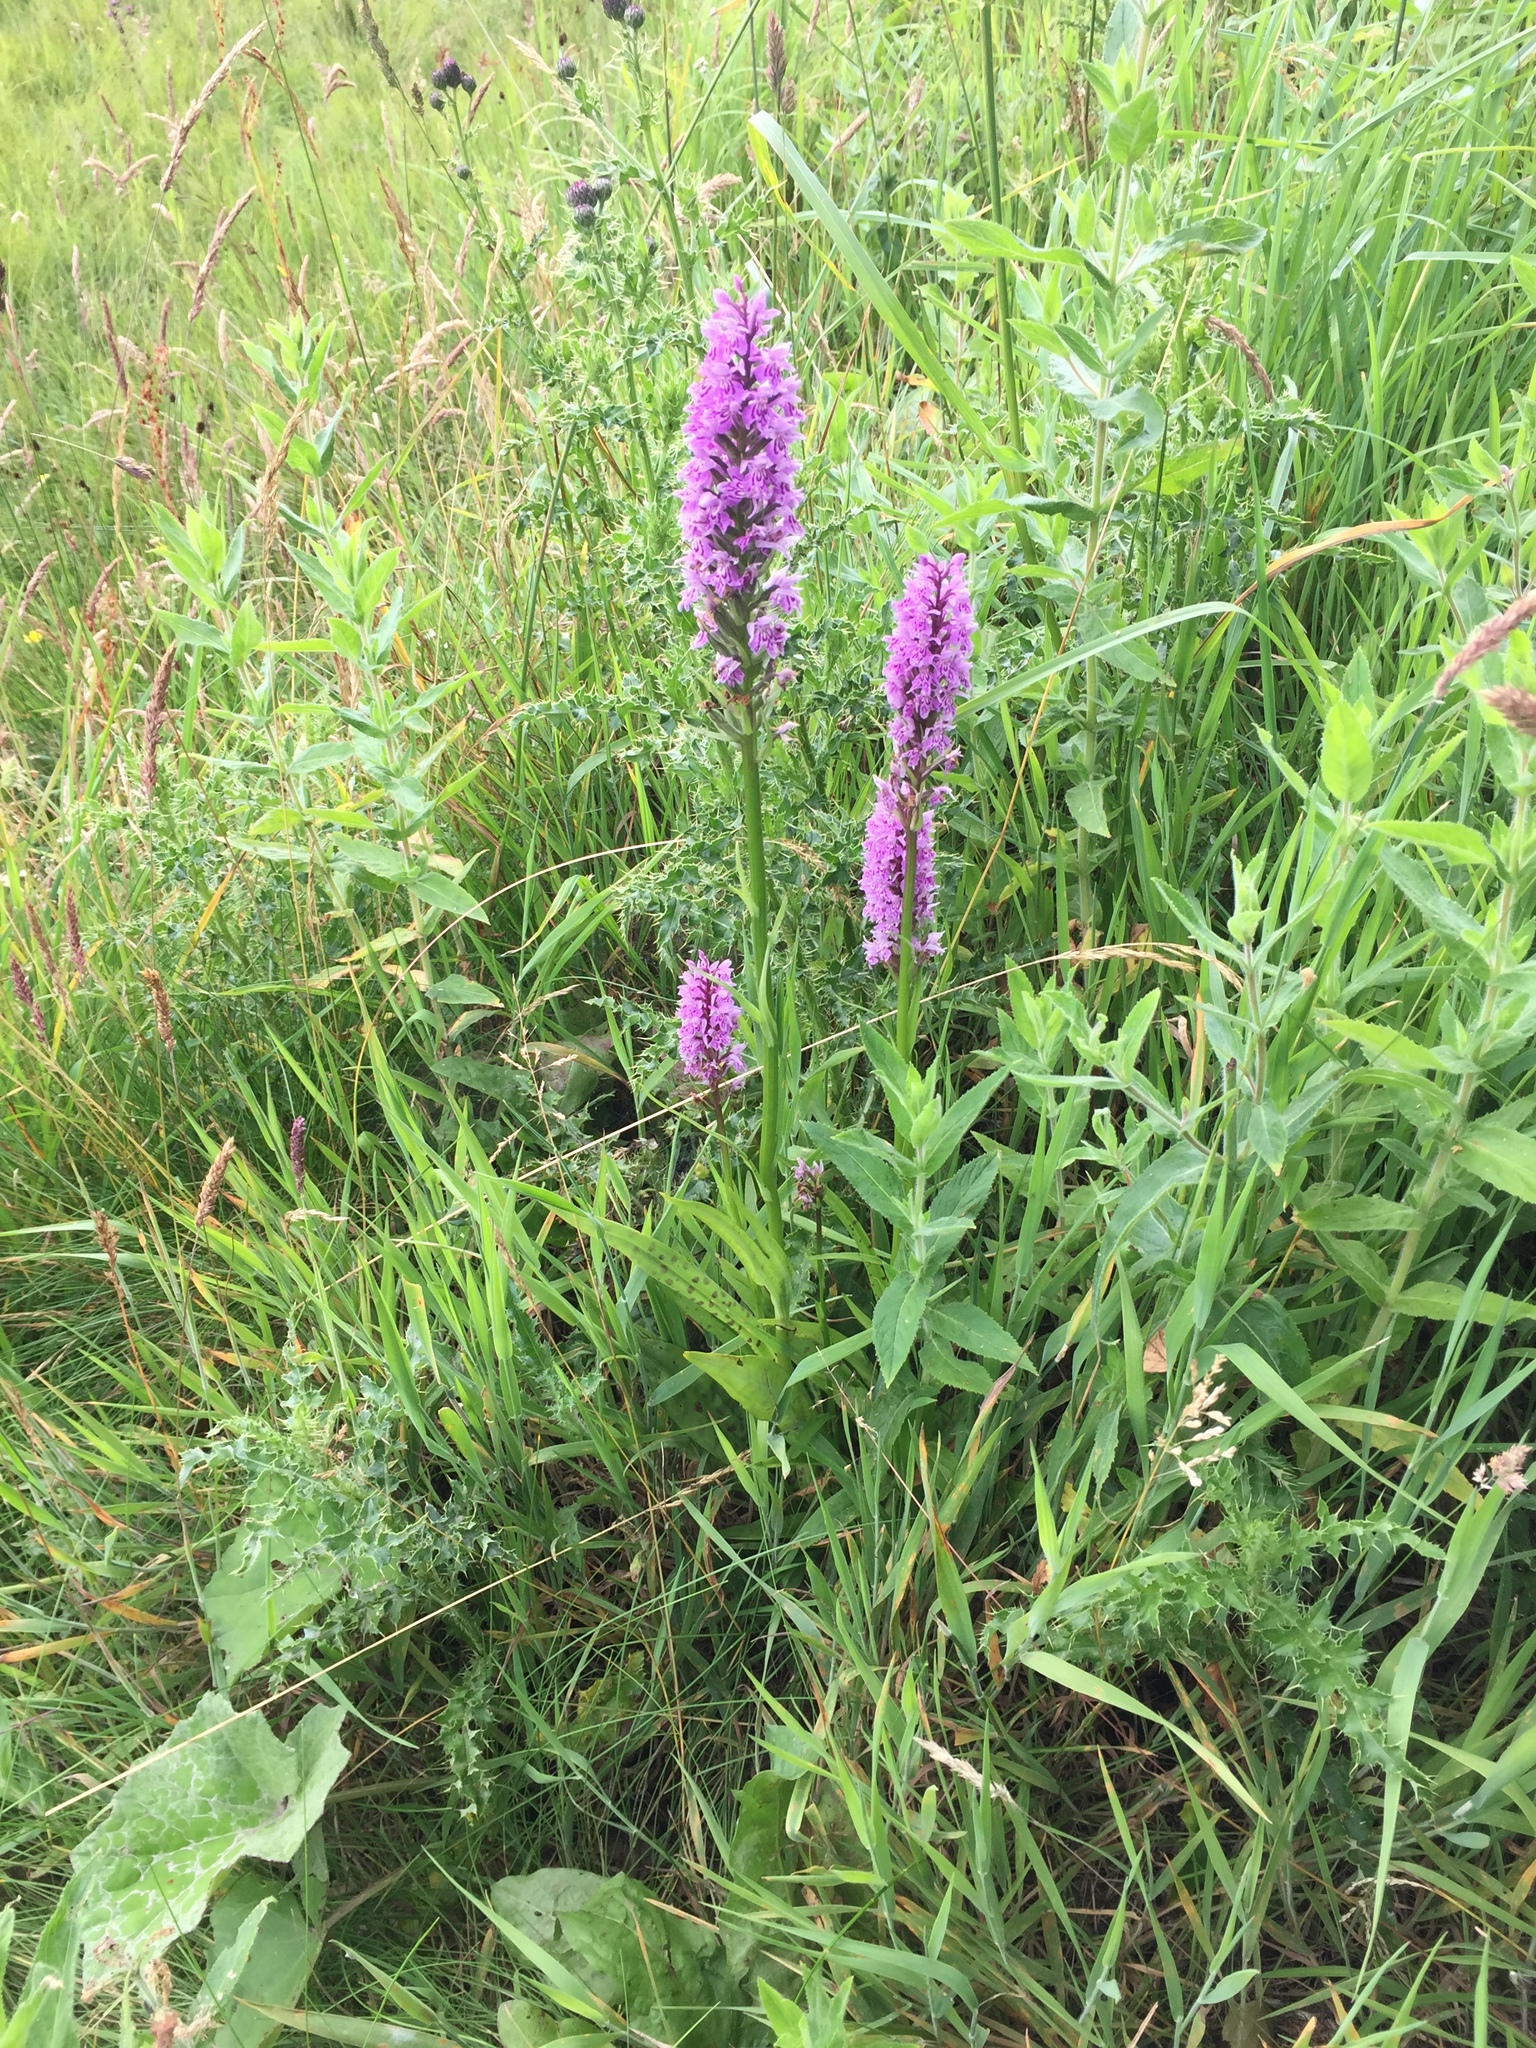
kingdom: Plantae
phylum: Tracheophyta
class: Liliopsida
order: Asparagales
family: Orchidaceae
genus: Dactylorhiza
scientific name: Dactylorhiza maculata
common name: Heath spotted-orchid
